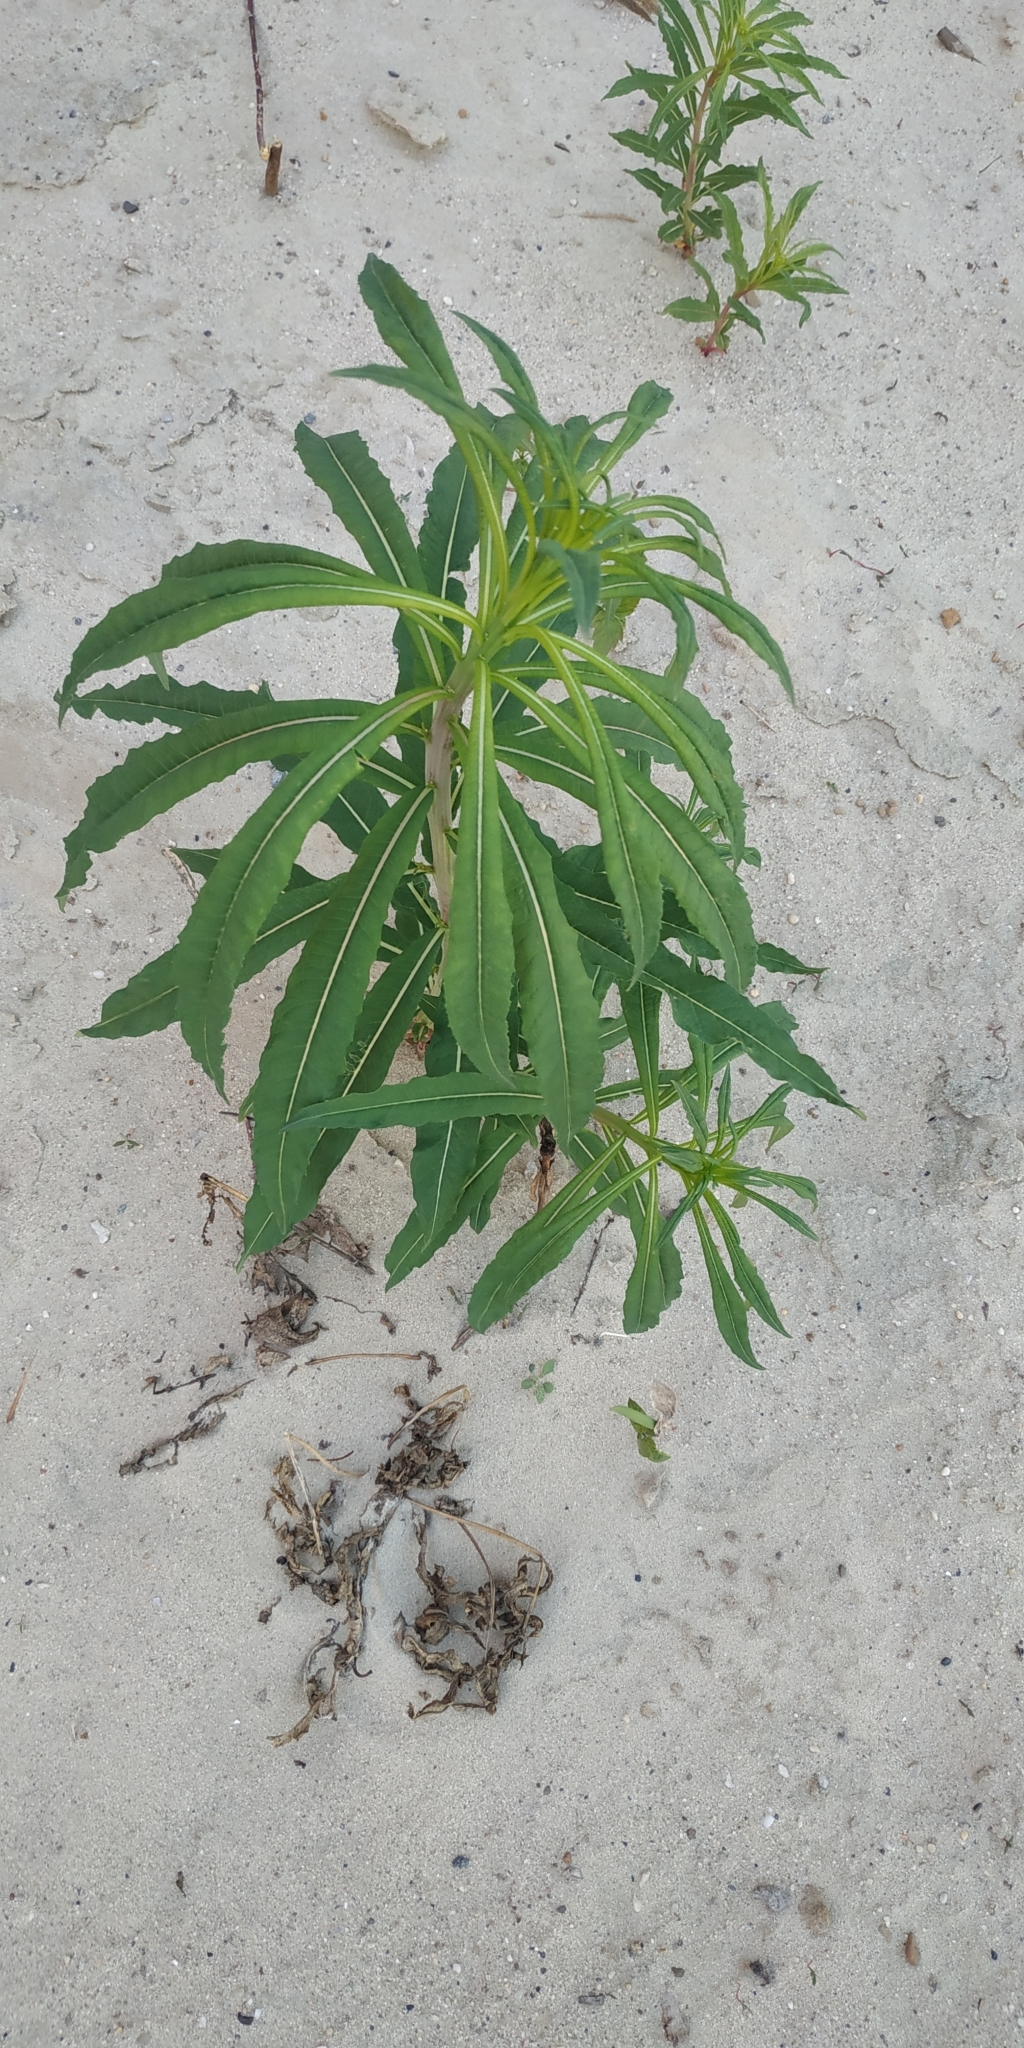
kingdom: Plantae
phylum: Tracheophyta
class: Magnoliopsida
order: Myrtales
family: Onagraceae
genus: Chamaenerion
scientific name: Chamaenerion angustifolium
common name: Fireweed
